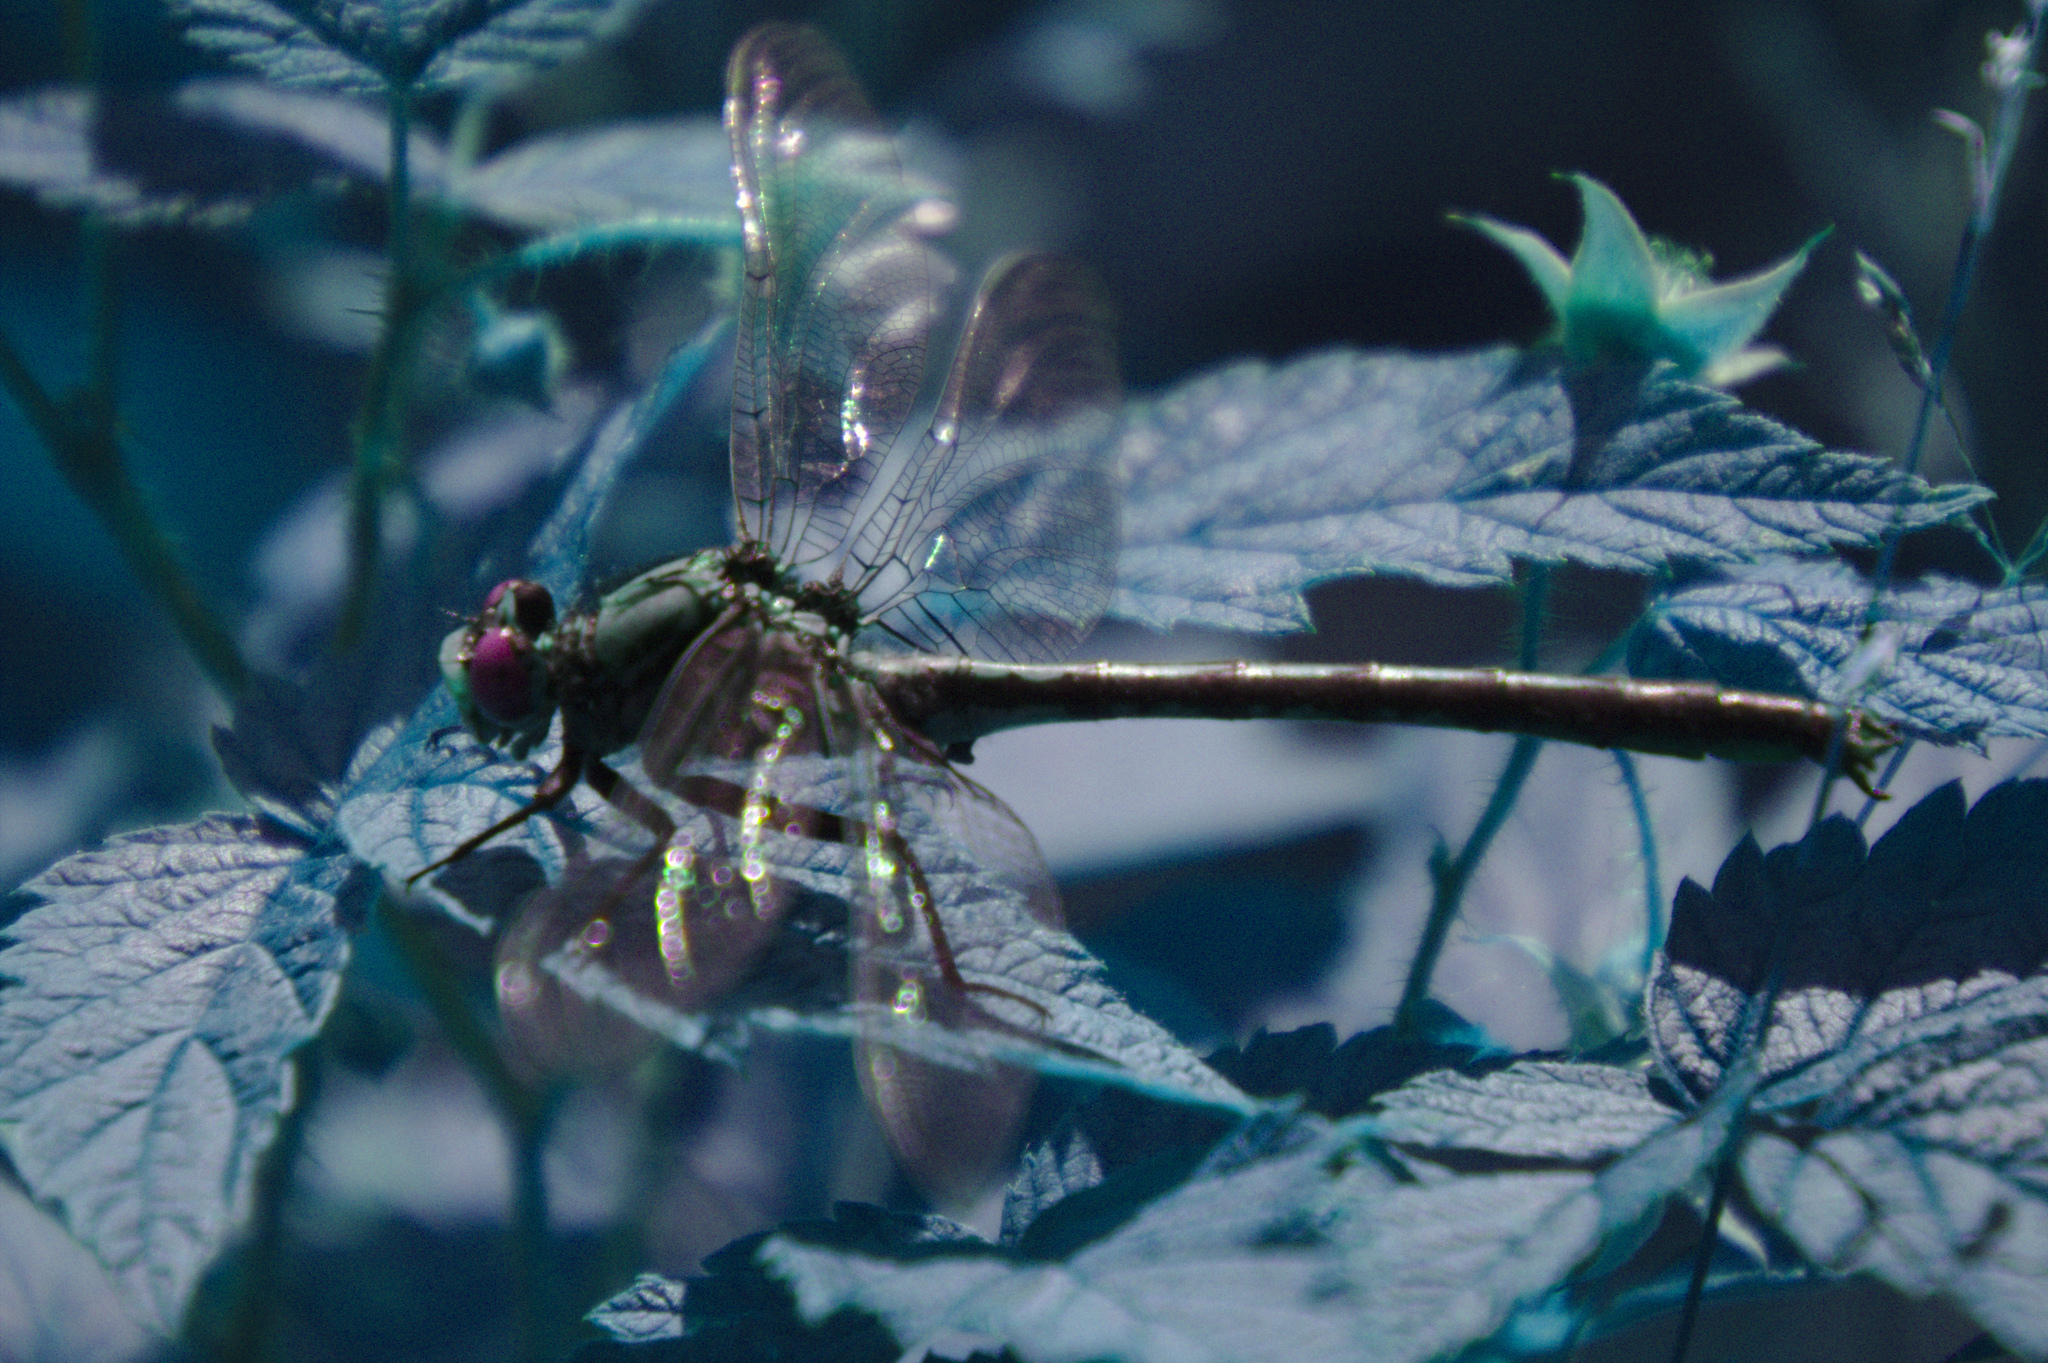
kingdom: Animalia
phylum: Arthropoda
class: Insecta
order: Odonata
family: Gomphidae
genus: Arigomphus
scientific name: Arigomphus cornutus
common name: Horned clubtail
